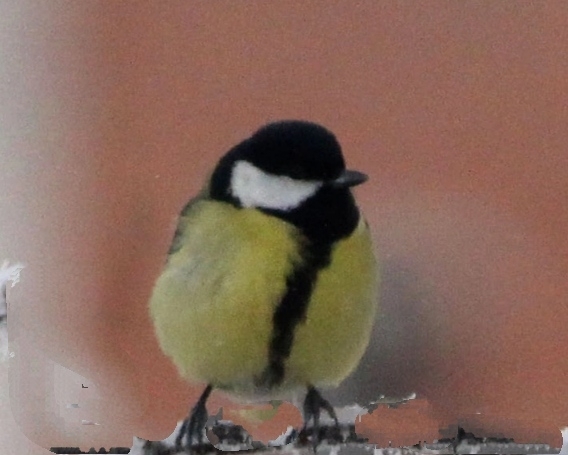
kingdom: Animalia
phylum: Chordata
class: Aves
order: Passeriformes
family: Paridae
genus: Parus
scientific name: Parus major
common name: Great tit
